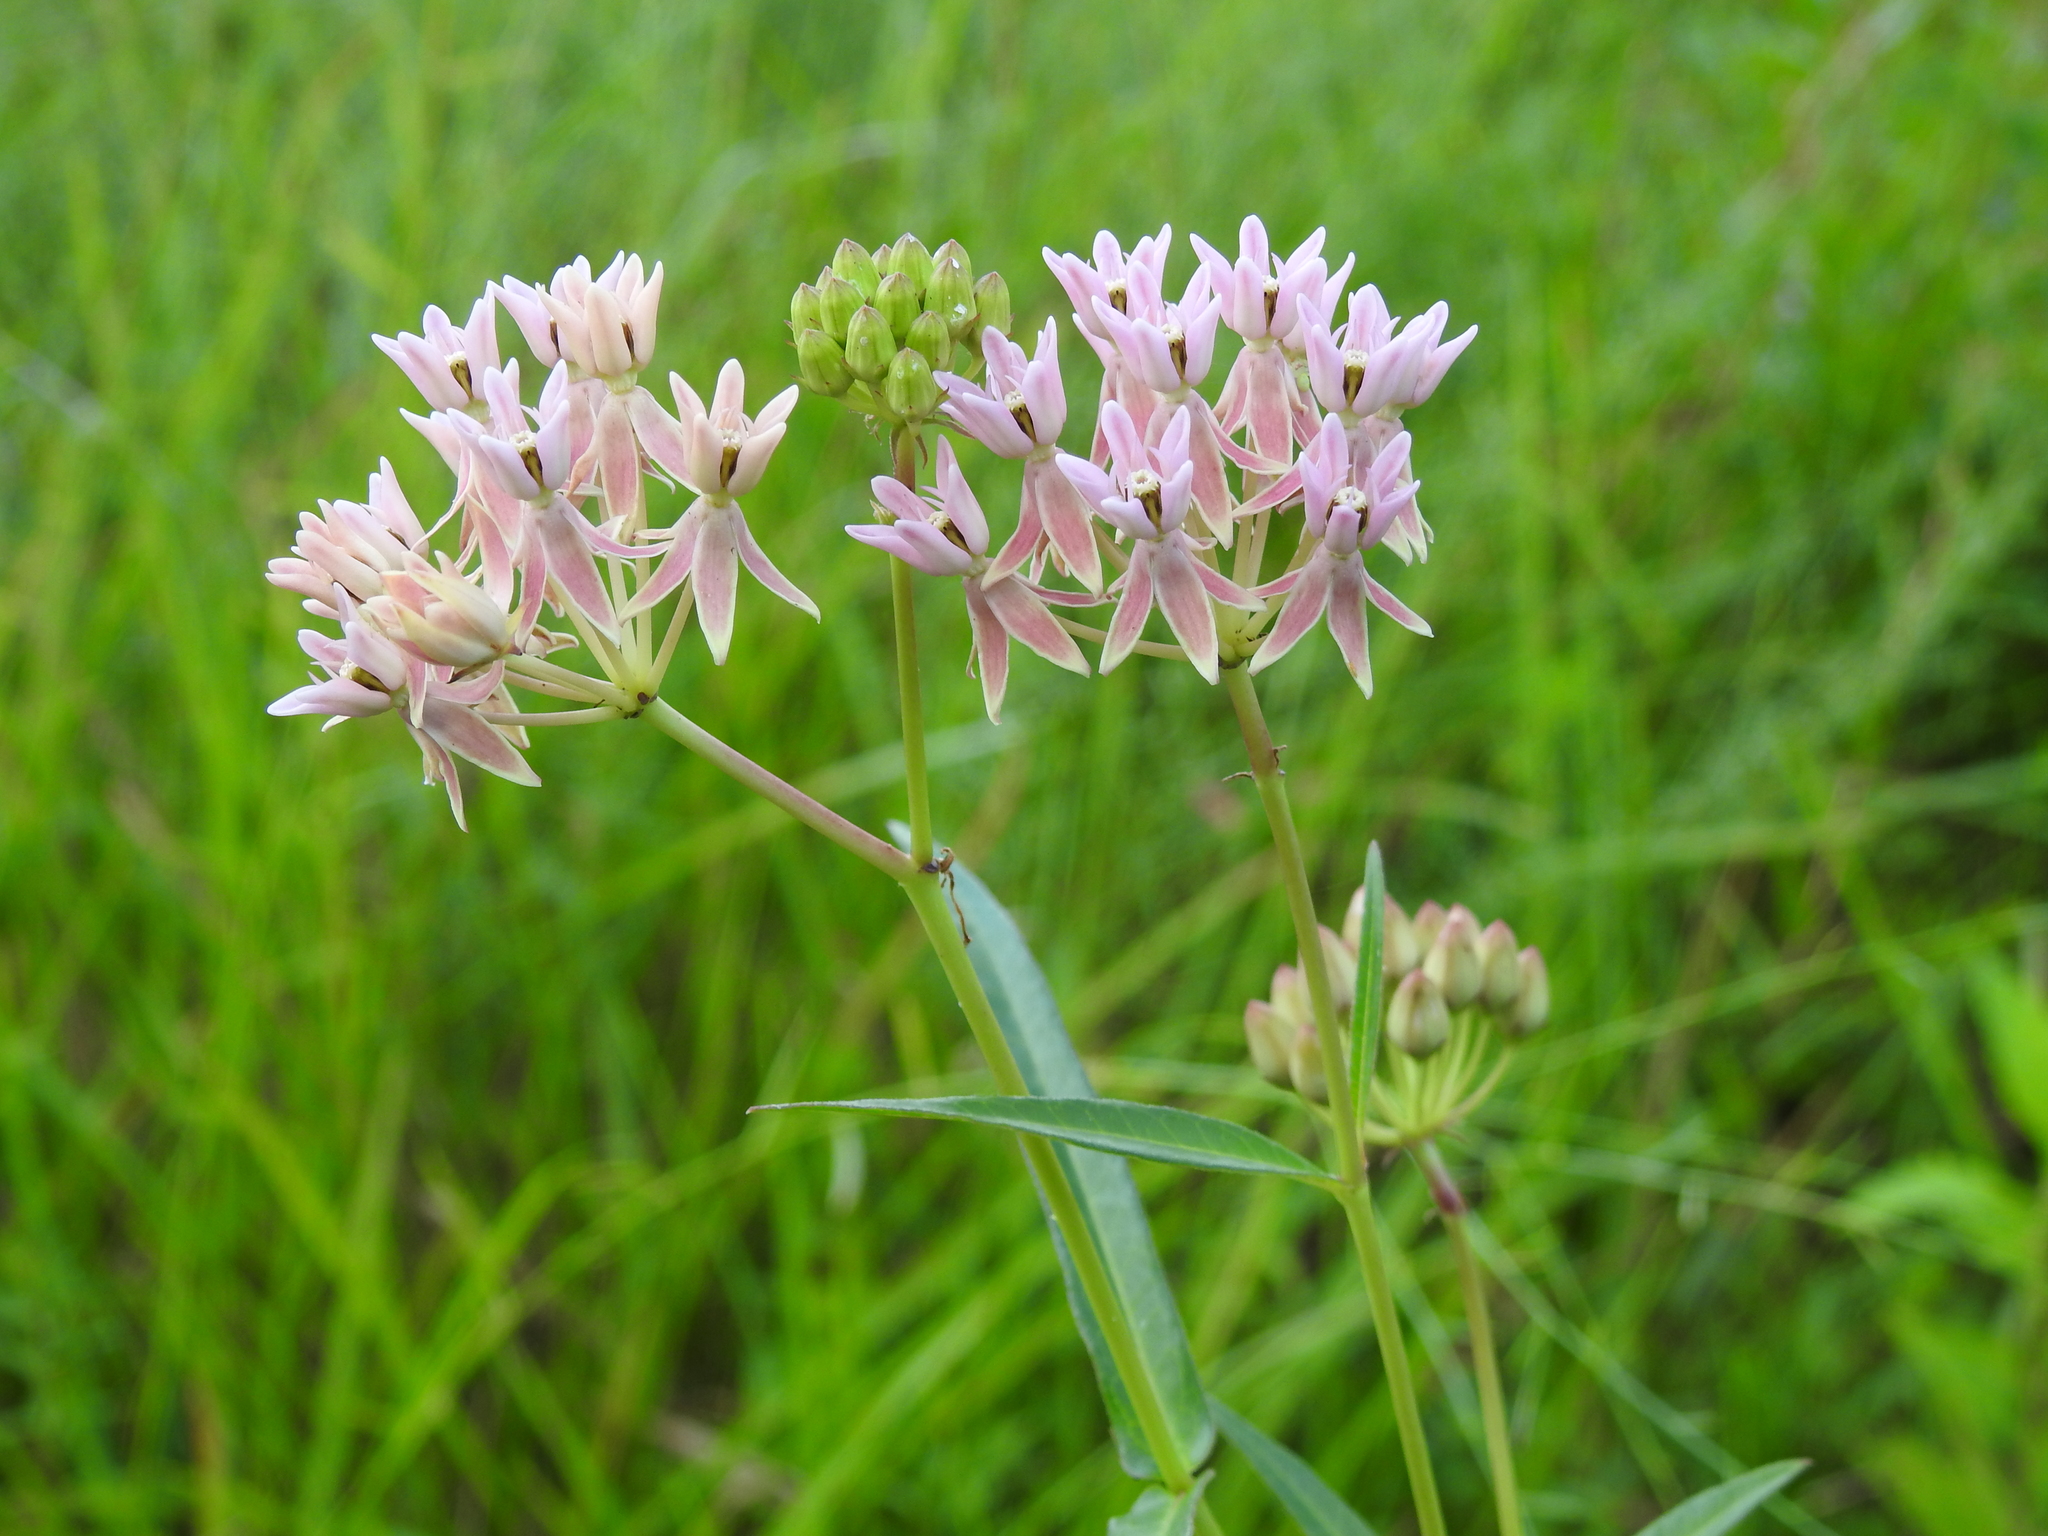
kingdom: Plantae
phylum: Tracheophyta
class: Magnoliopsida
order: Gentianales
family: Apocynaceae
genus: Asclepias
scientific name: Asclepias rubra
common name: Red milkweed
